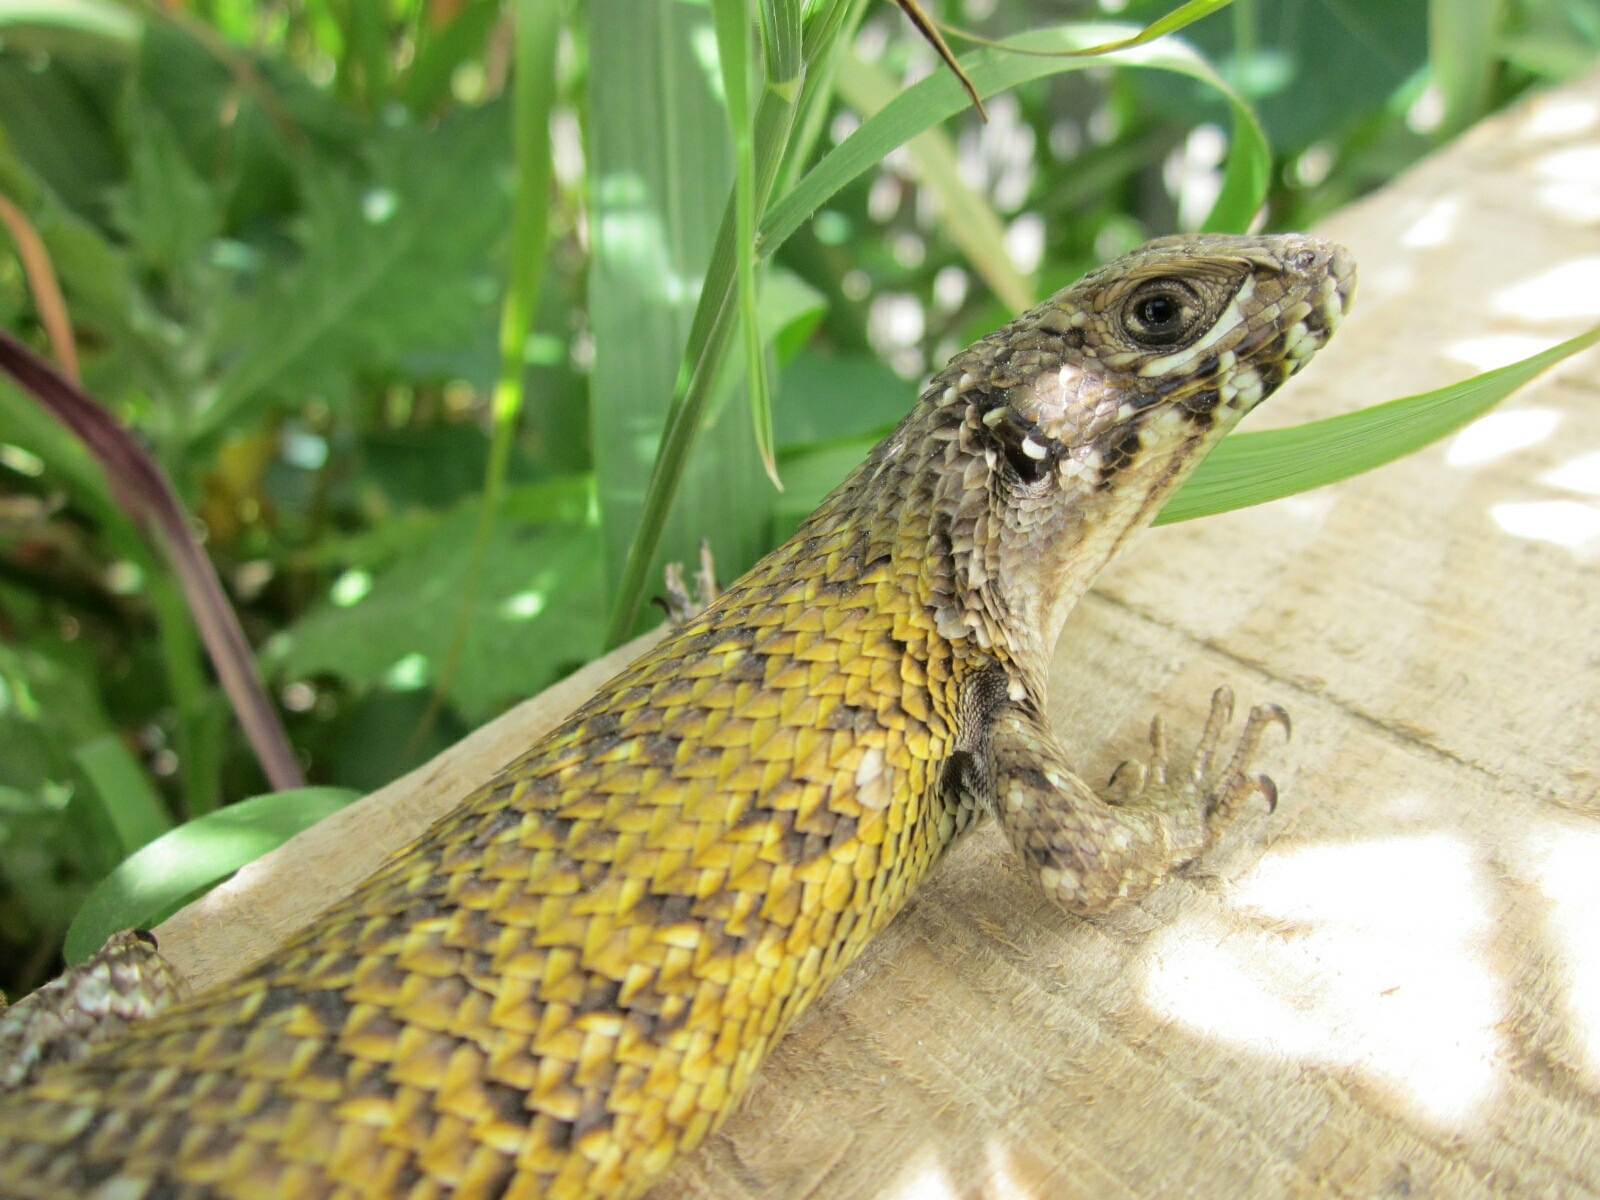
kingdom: Animalia
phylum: Chordata
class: Squamata
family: Liolaemidae
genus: Liolaemus
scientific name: Liolaemus nitidus
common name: Shining tree iguana
